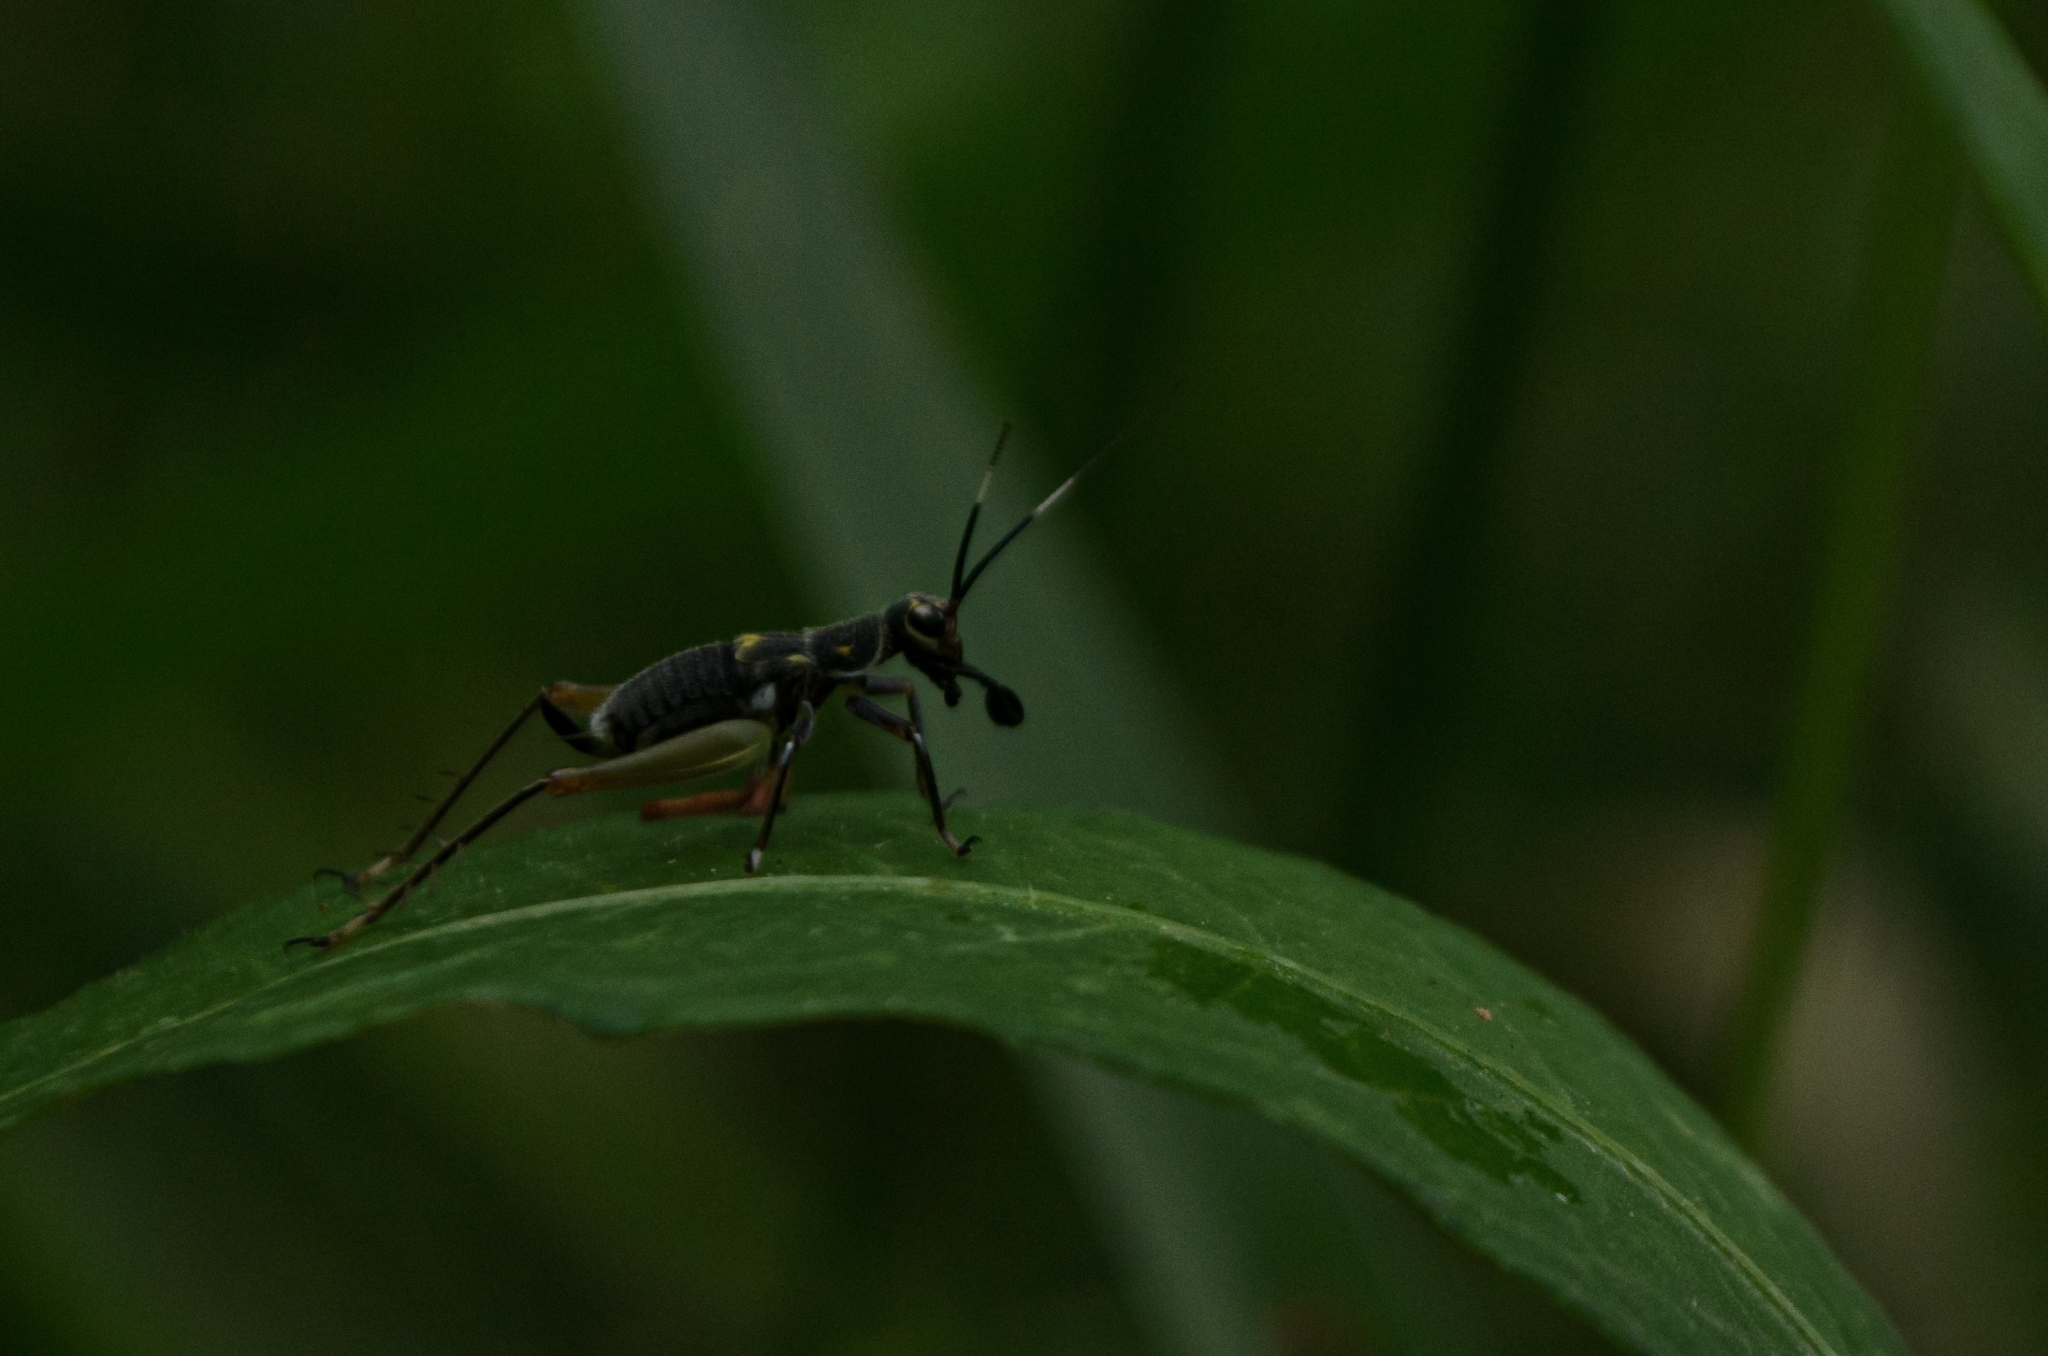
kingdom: Animalia
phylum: Arthropoda
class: Insecta
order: Orthoptera
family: Trigonidiidae
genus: Phylloscyrtus
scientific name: Phylloscyrtus amoenus
